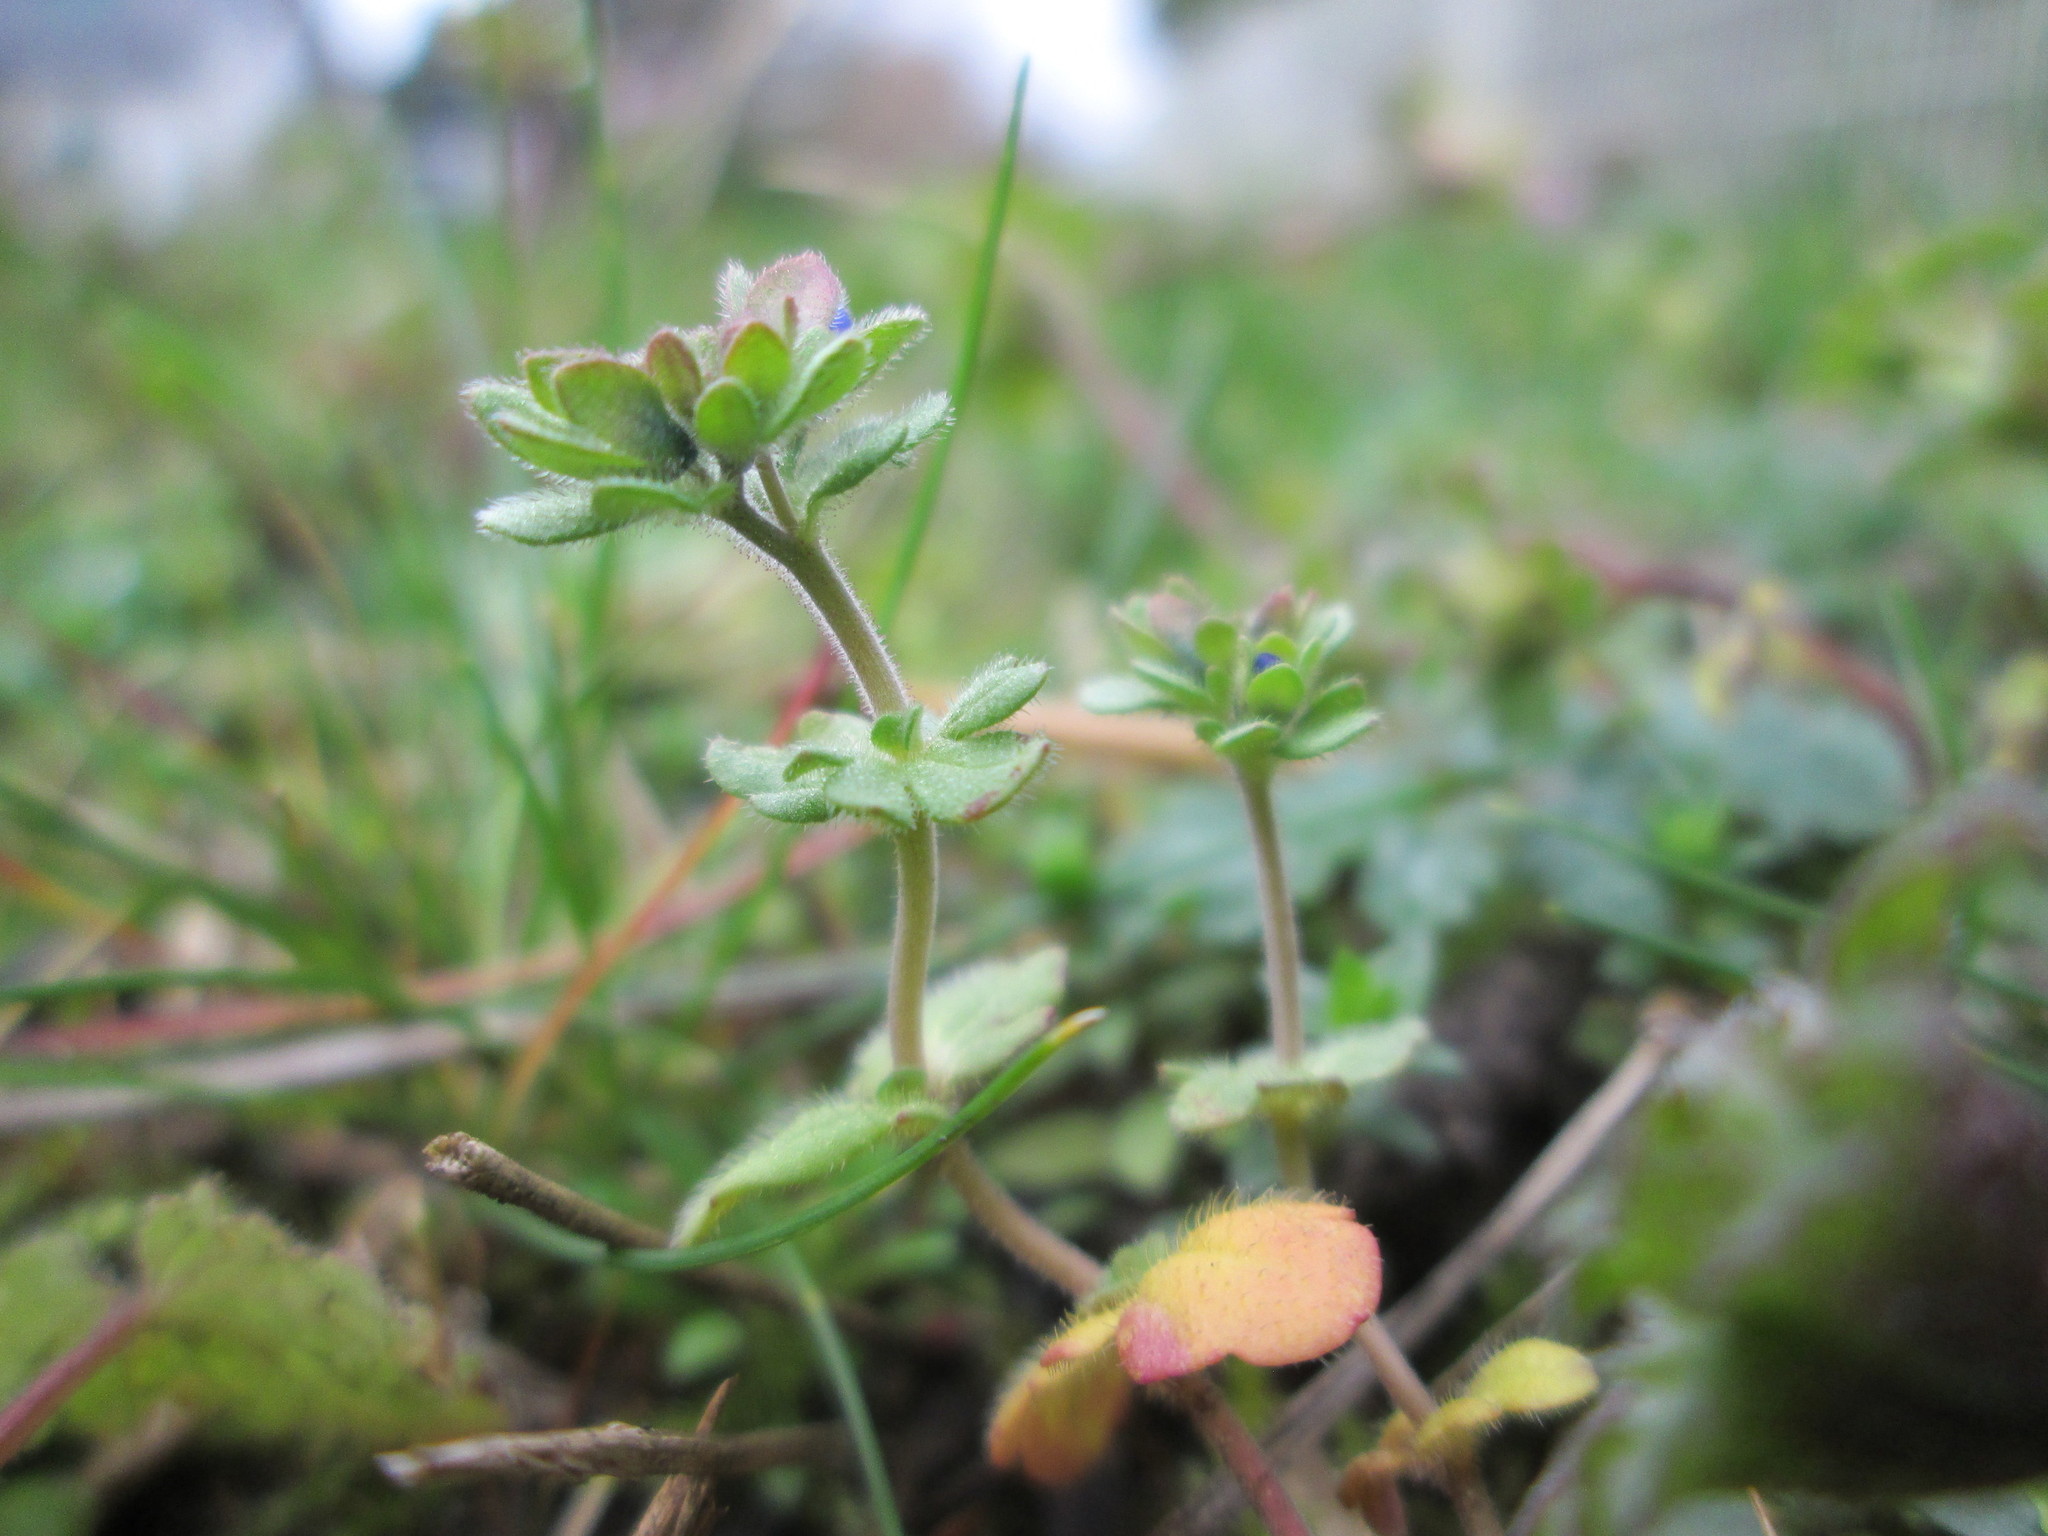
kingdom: Plantae
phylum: Tracheophyta
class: Magnoliopsida
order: Lamiales
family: Plantaginaceae
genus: Veronica
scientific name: Veronica triphyllos
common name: Fingered speedwell
